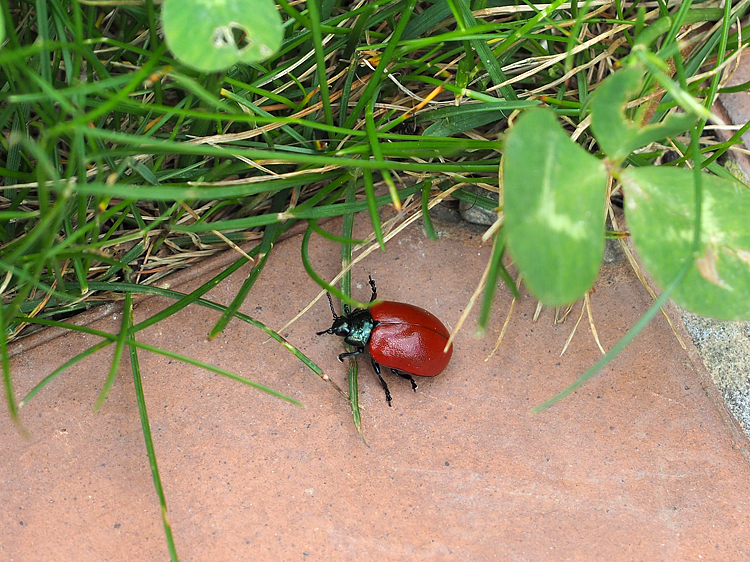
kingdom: Animalia
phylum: Arthropoda
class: Insecta
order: Coleoptera
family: Chrysomelidae
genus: Chrysomela
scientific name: Chrysomela populi
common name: Red poplar leaf beetle
